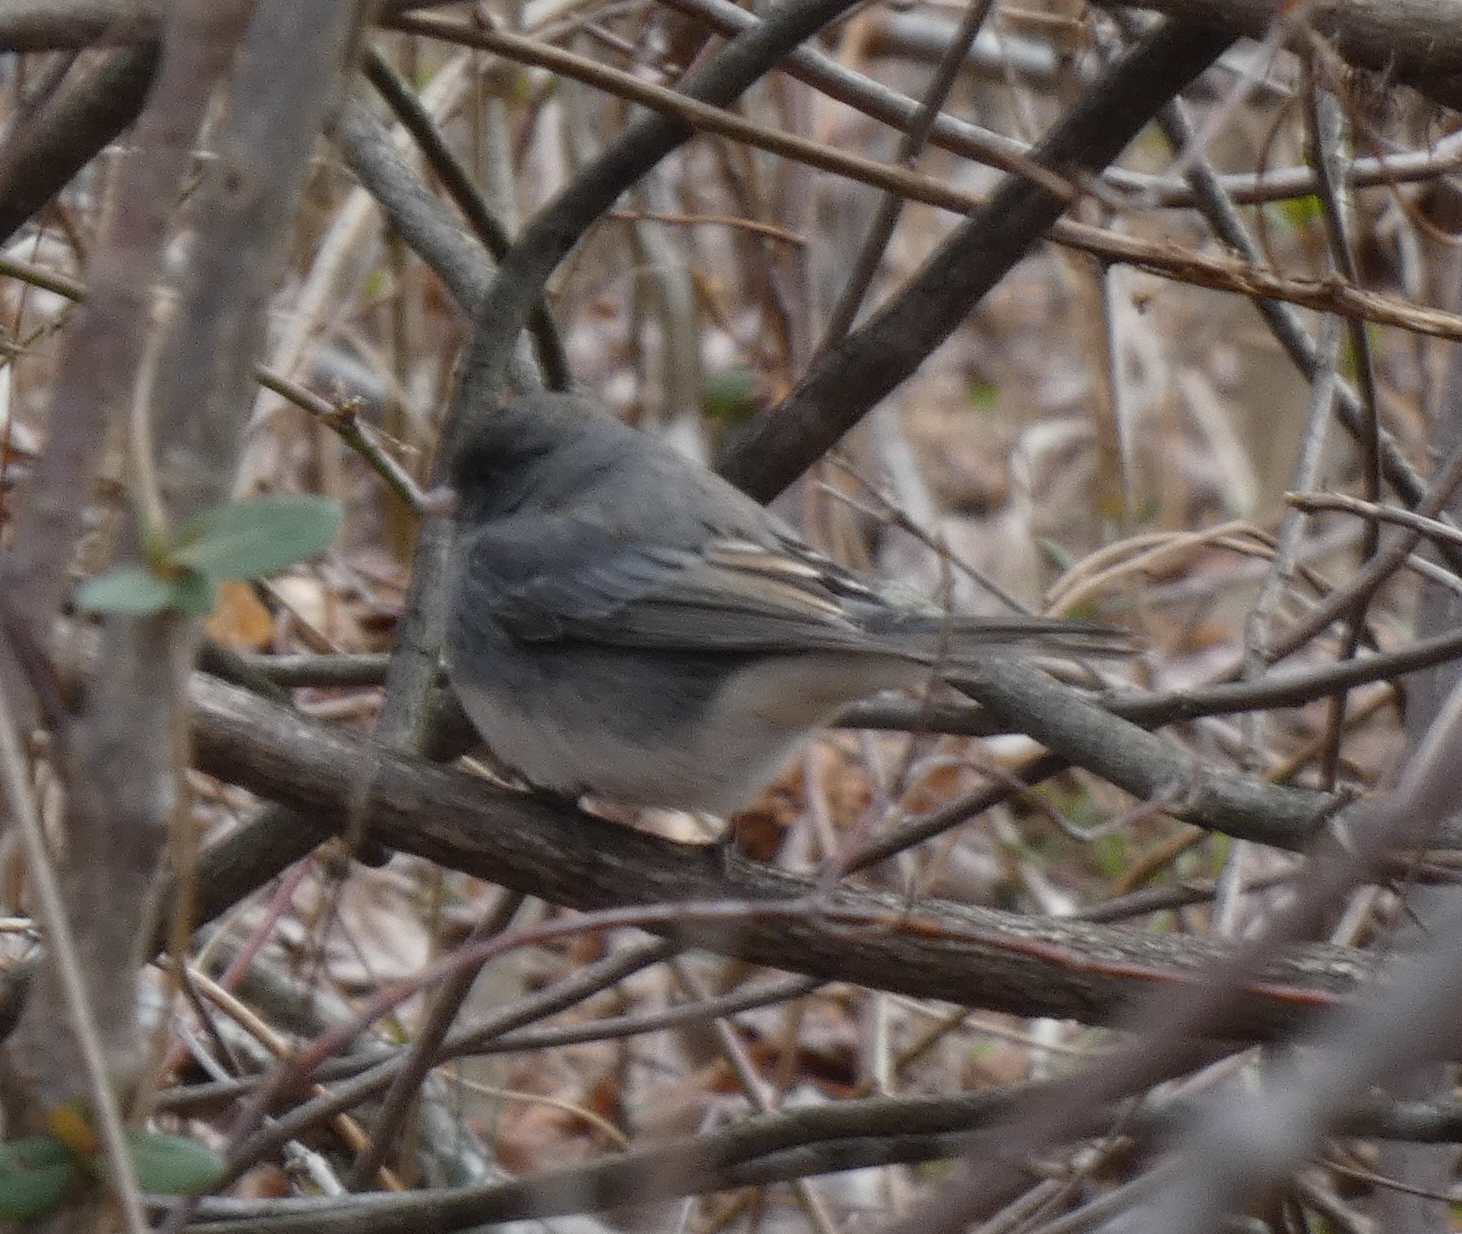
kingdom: Animalia
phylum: Chordata
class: Aves
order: Passeriformes
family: Passerellidae
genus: Junco
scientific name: Junco hyemalis
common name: Dark-eyed junco
